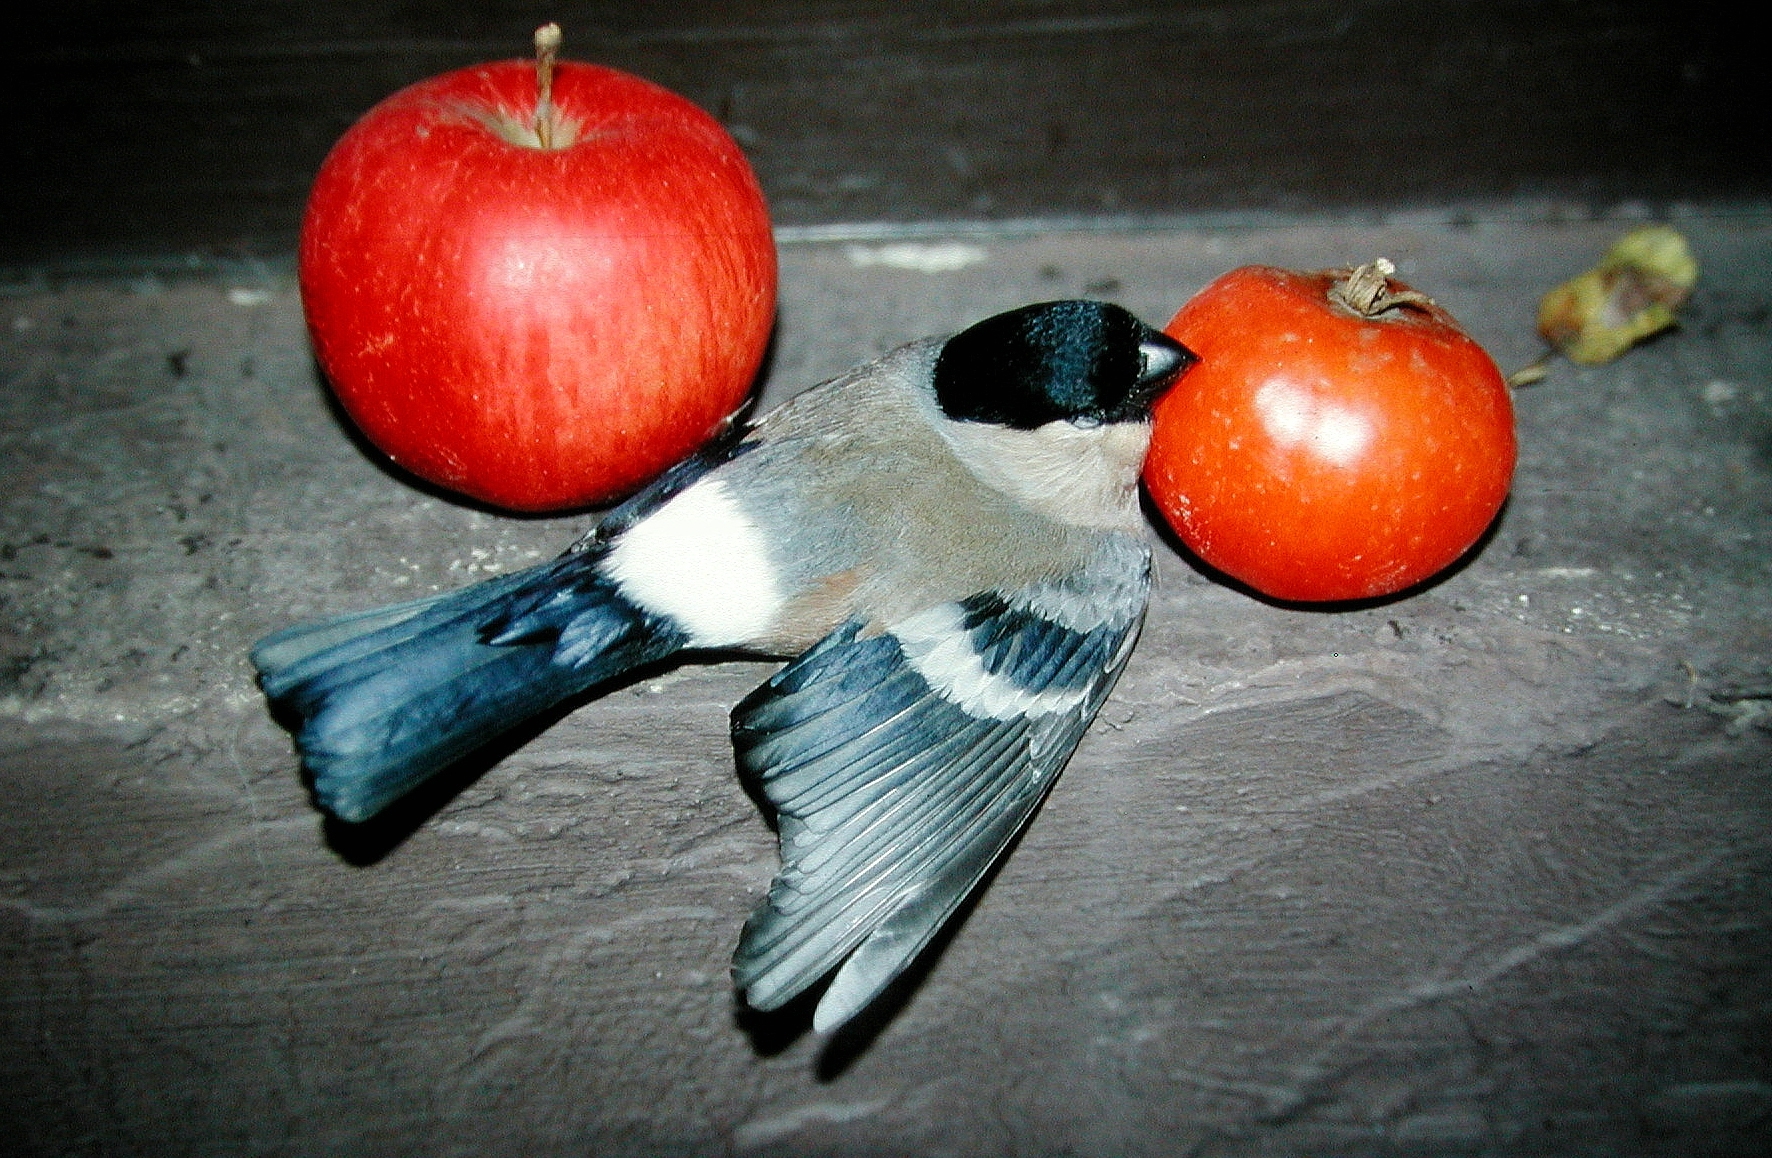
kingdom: Animalia
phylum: Chordata
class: Aves
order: Passeriformes
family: Fringillidae
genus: Pyrrhula
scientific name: Pyrrhula pyrrhula
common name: Eurasian bullfinch
